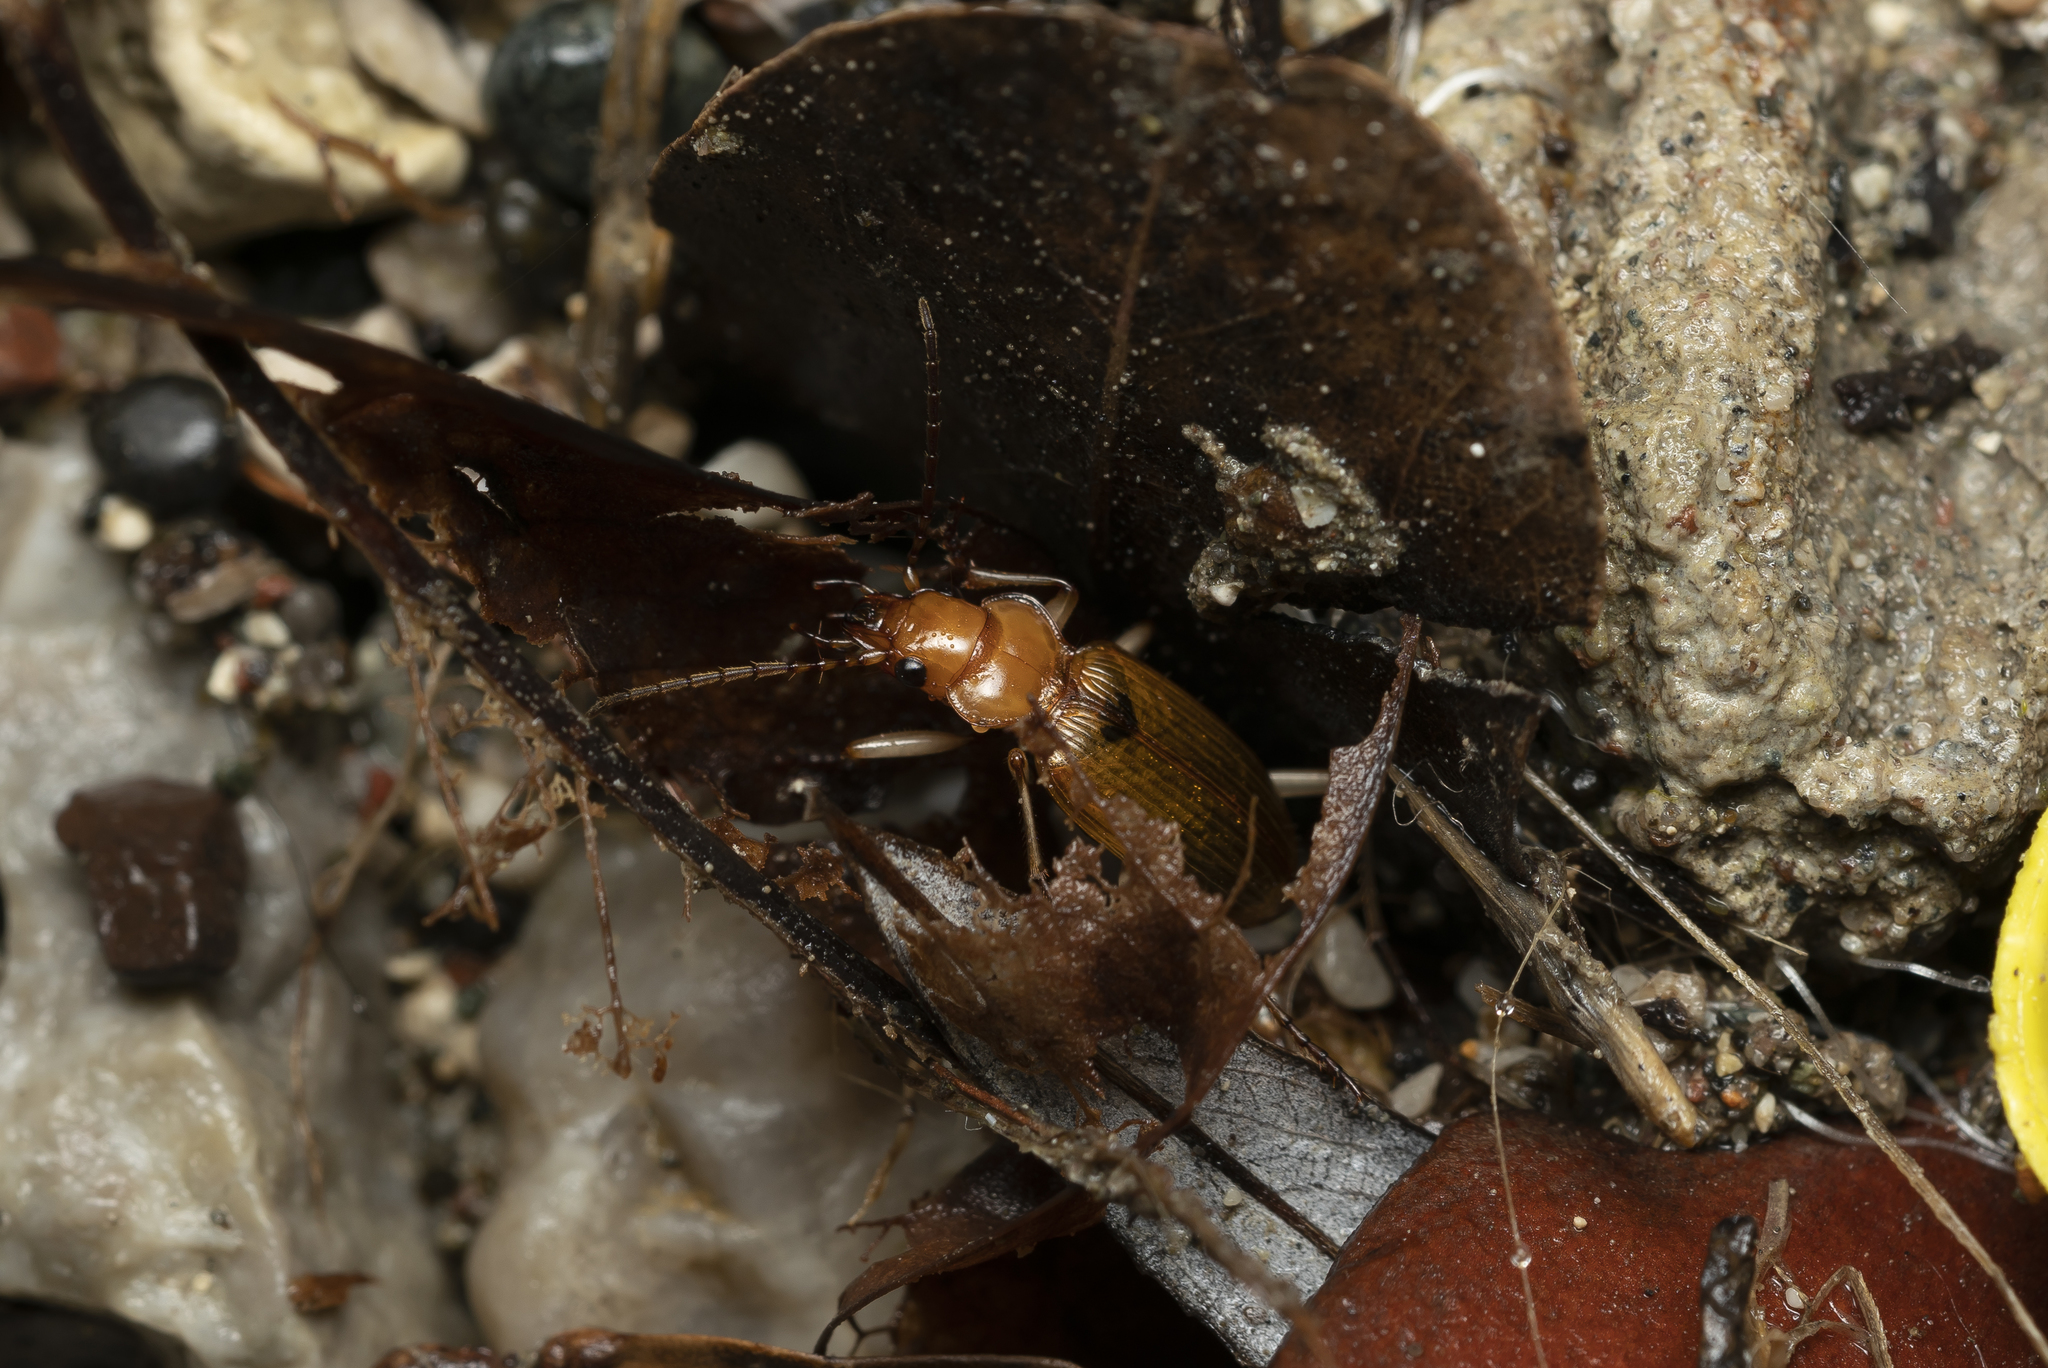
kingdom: Animalia
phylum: Arthropoda
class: Insecta
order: Coleoptera
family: Carabidae
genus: Nebria
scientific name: Nebria testacea
